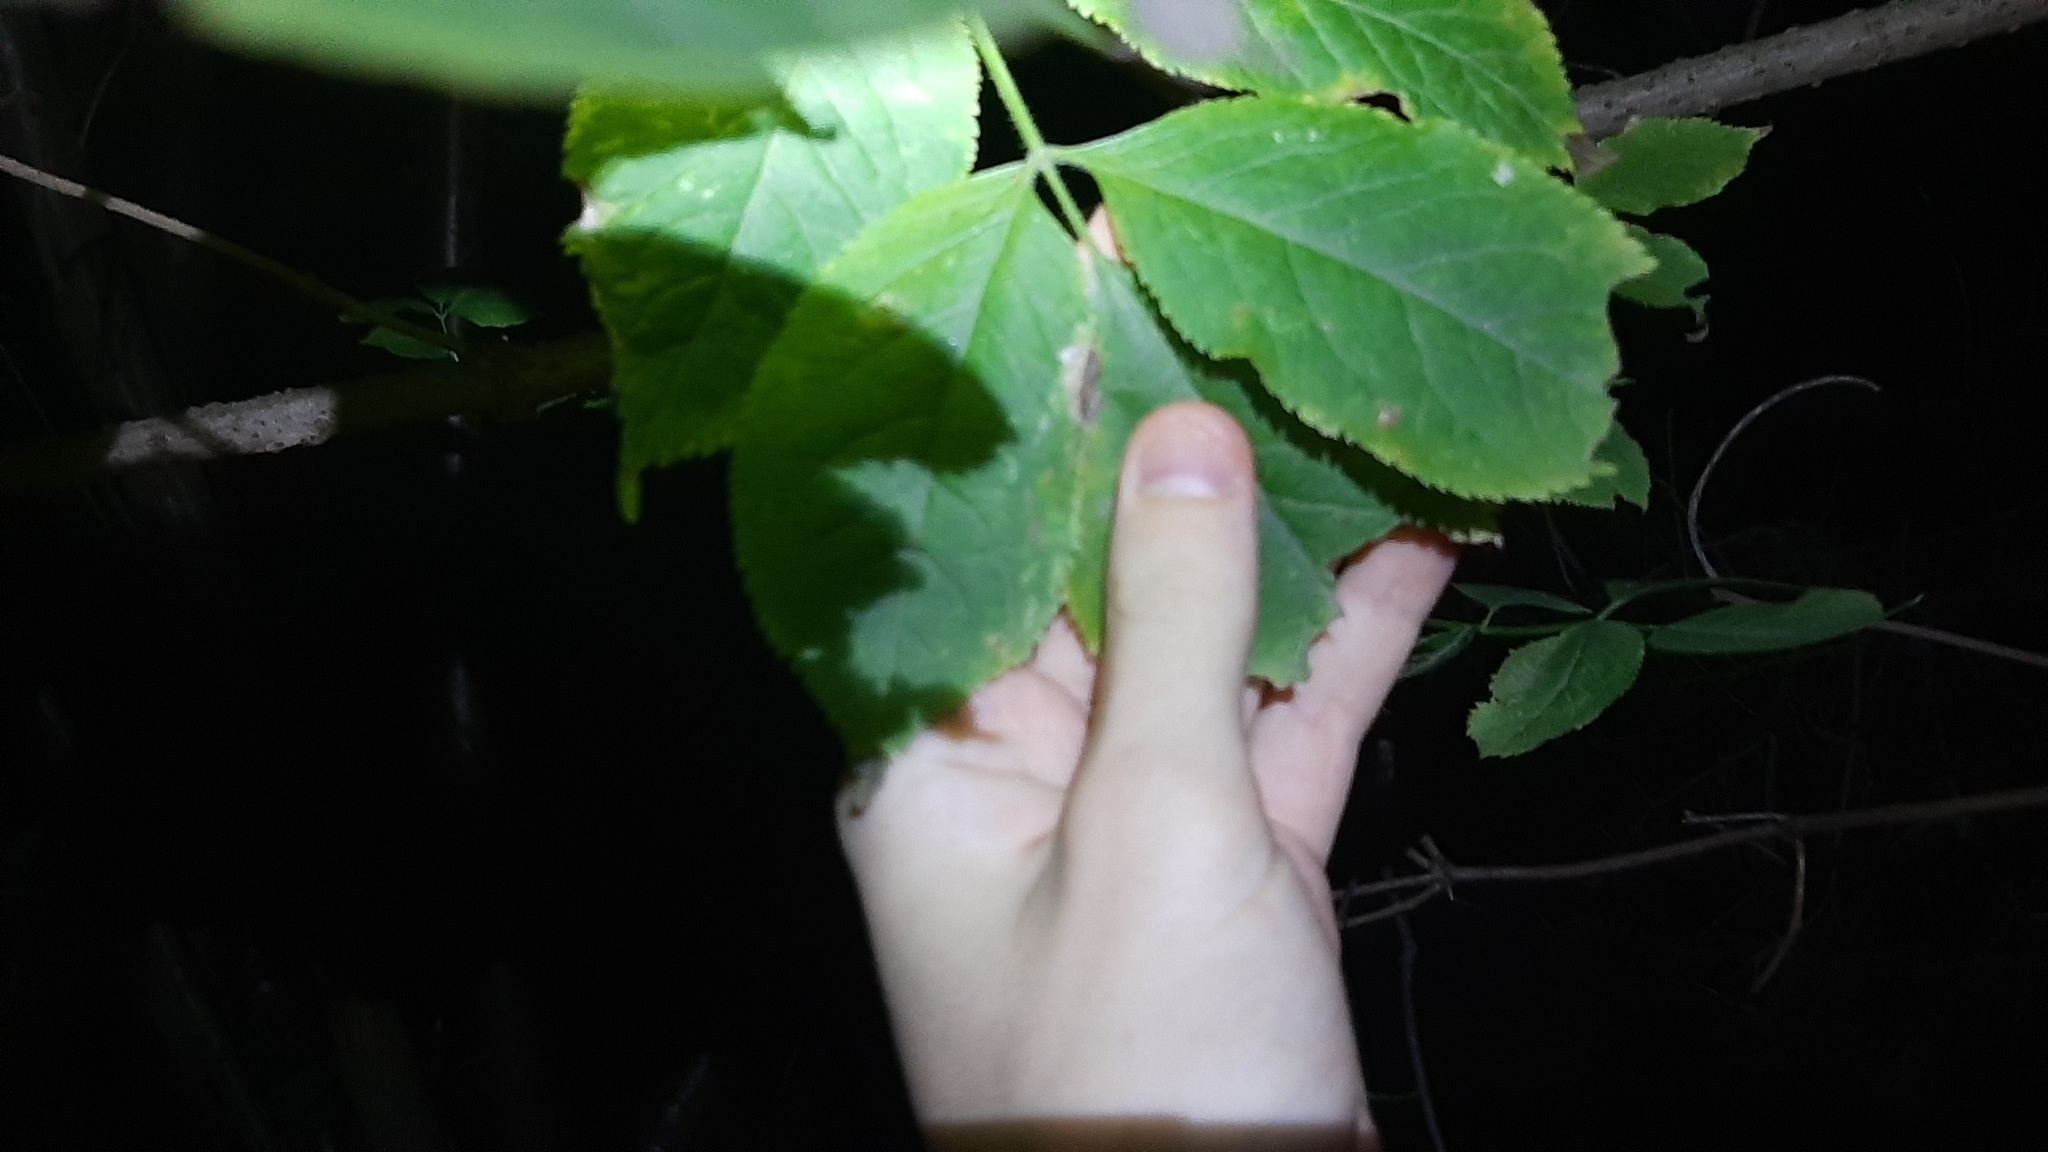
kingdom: Plantae
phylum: Tracheophyta
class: Magnoliopsida
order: Dipsacales
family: Viburnaceae
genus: Sambucus
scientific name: Sambucus nigra
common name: Elder
